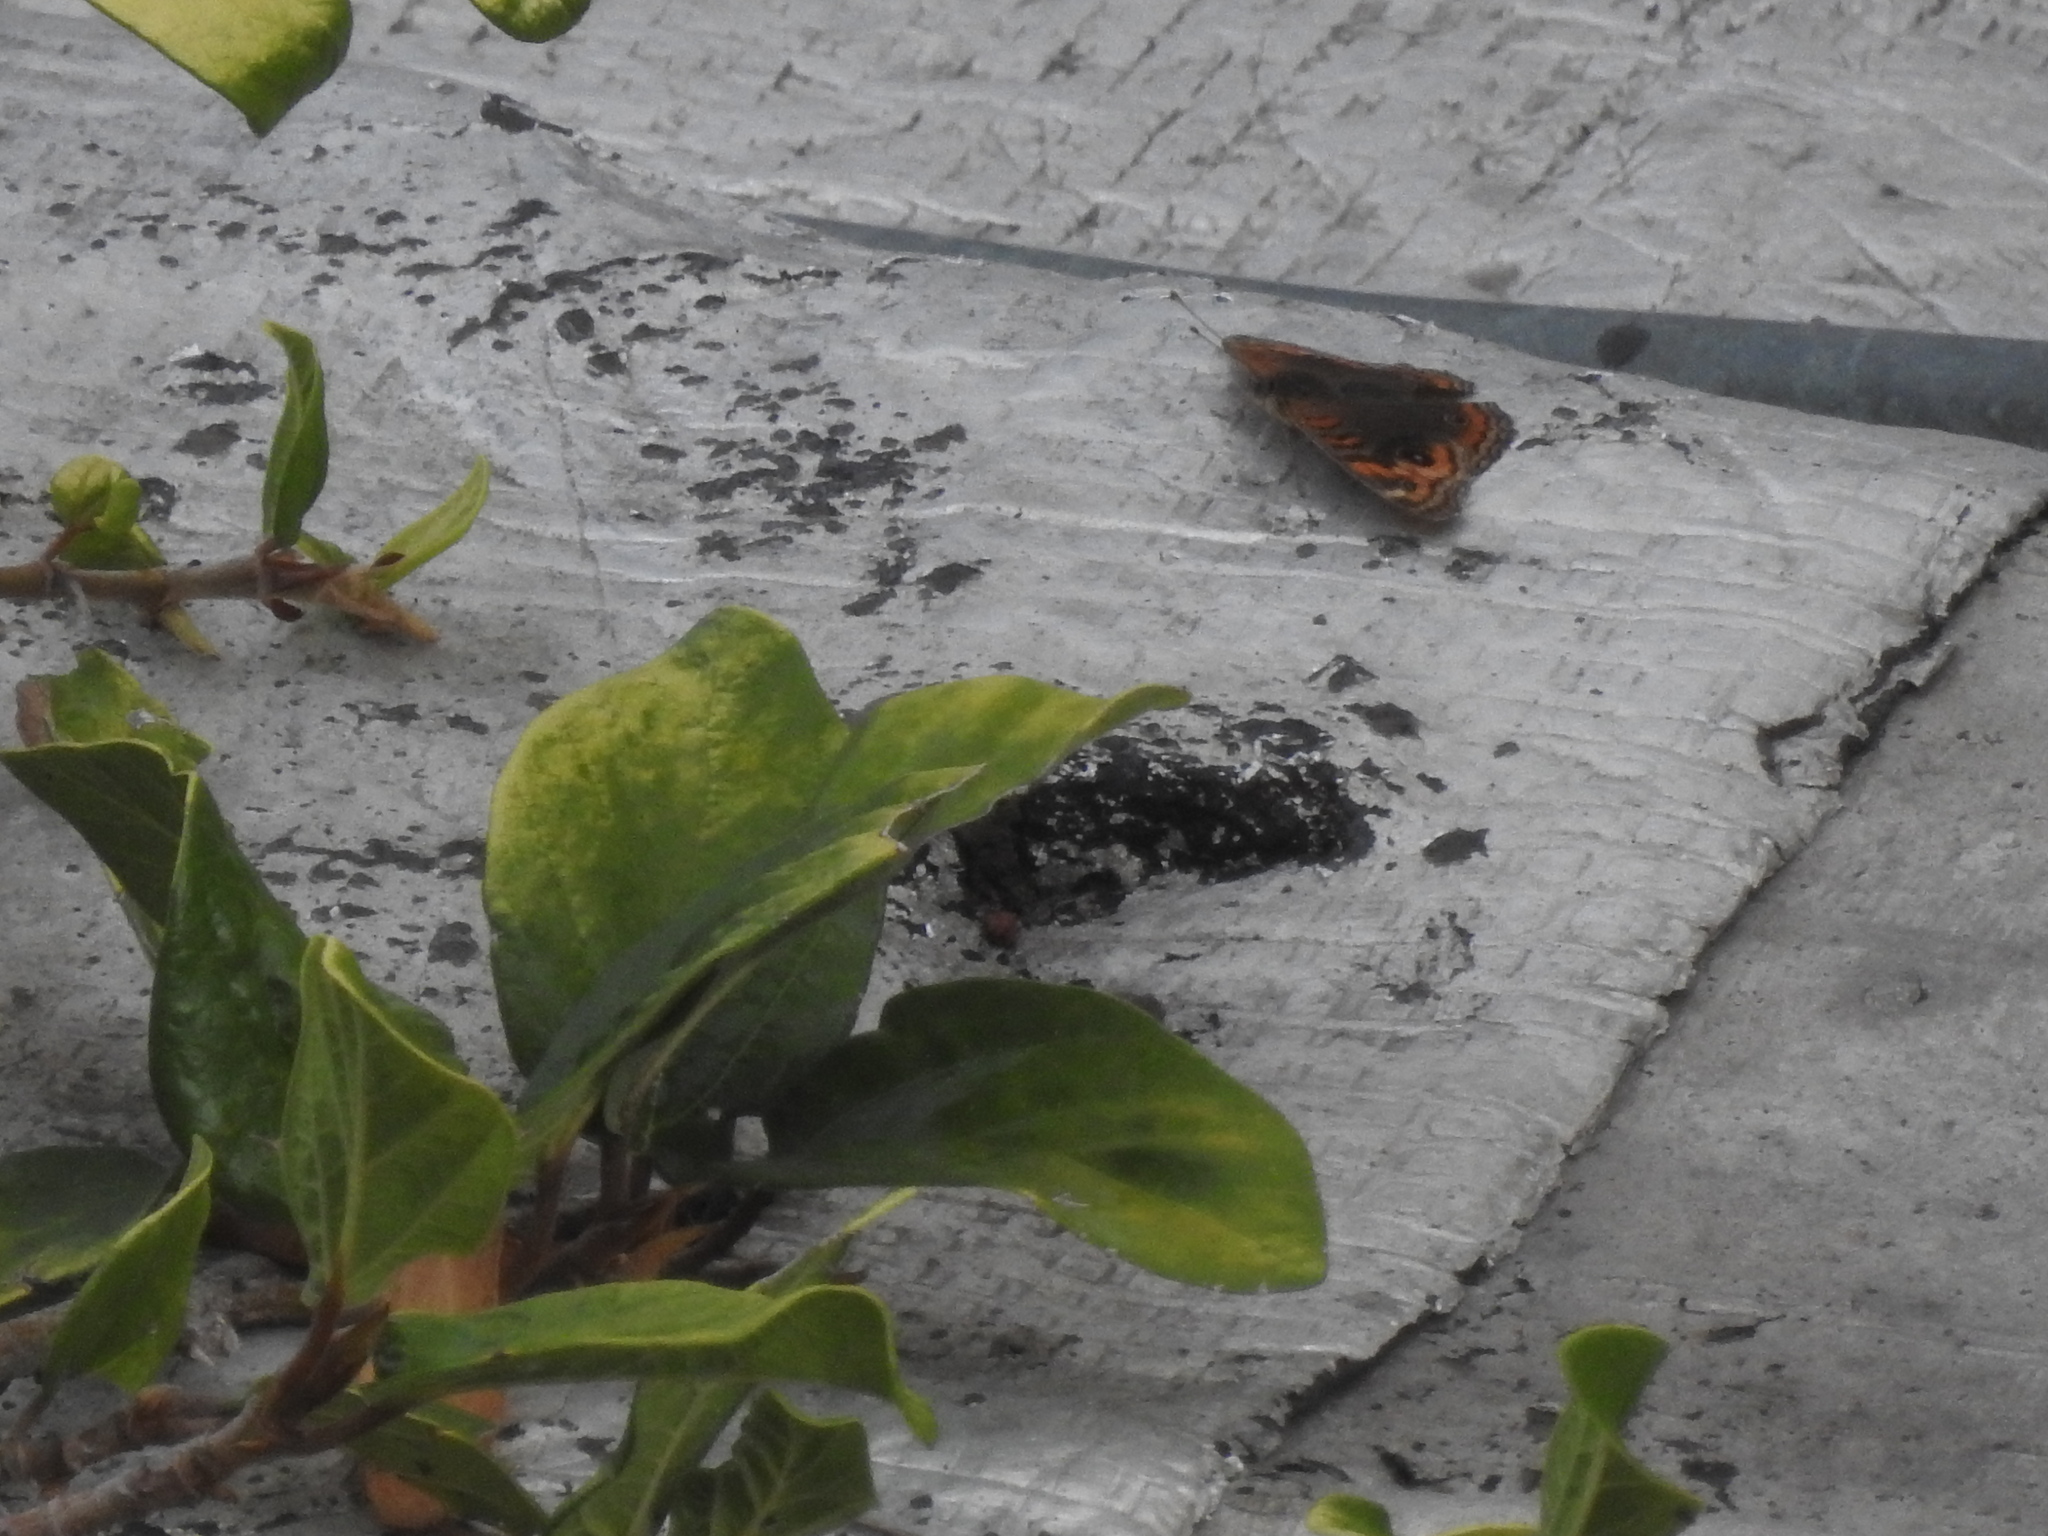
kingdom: Animalia
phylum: Arthropoda
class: Insecta
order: Lepidoptera
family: Nymphalidae
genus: Junonia
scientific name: Junonia lavinia
